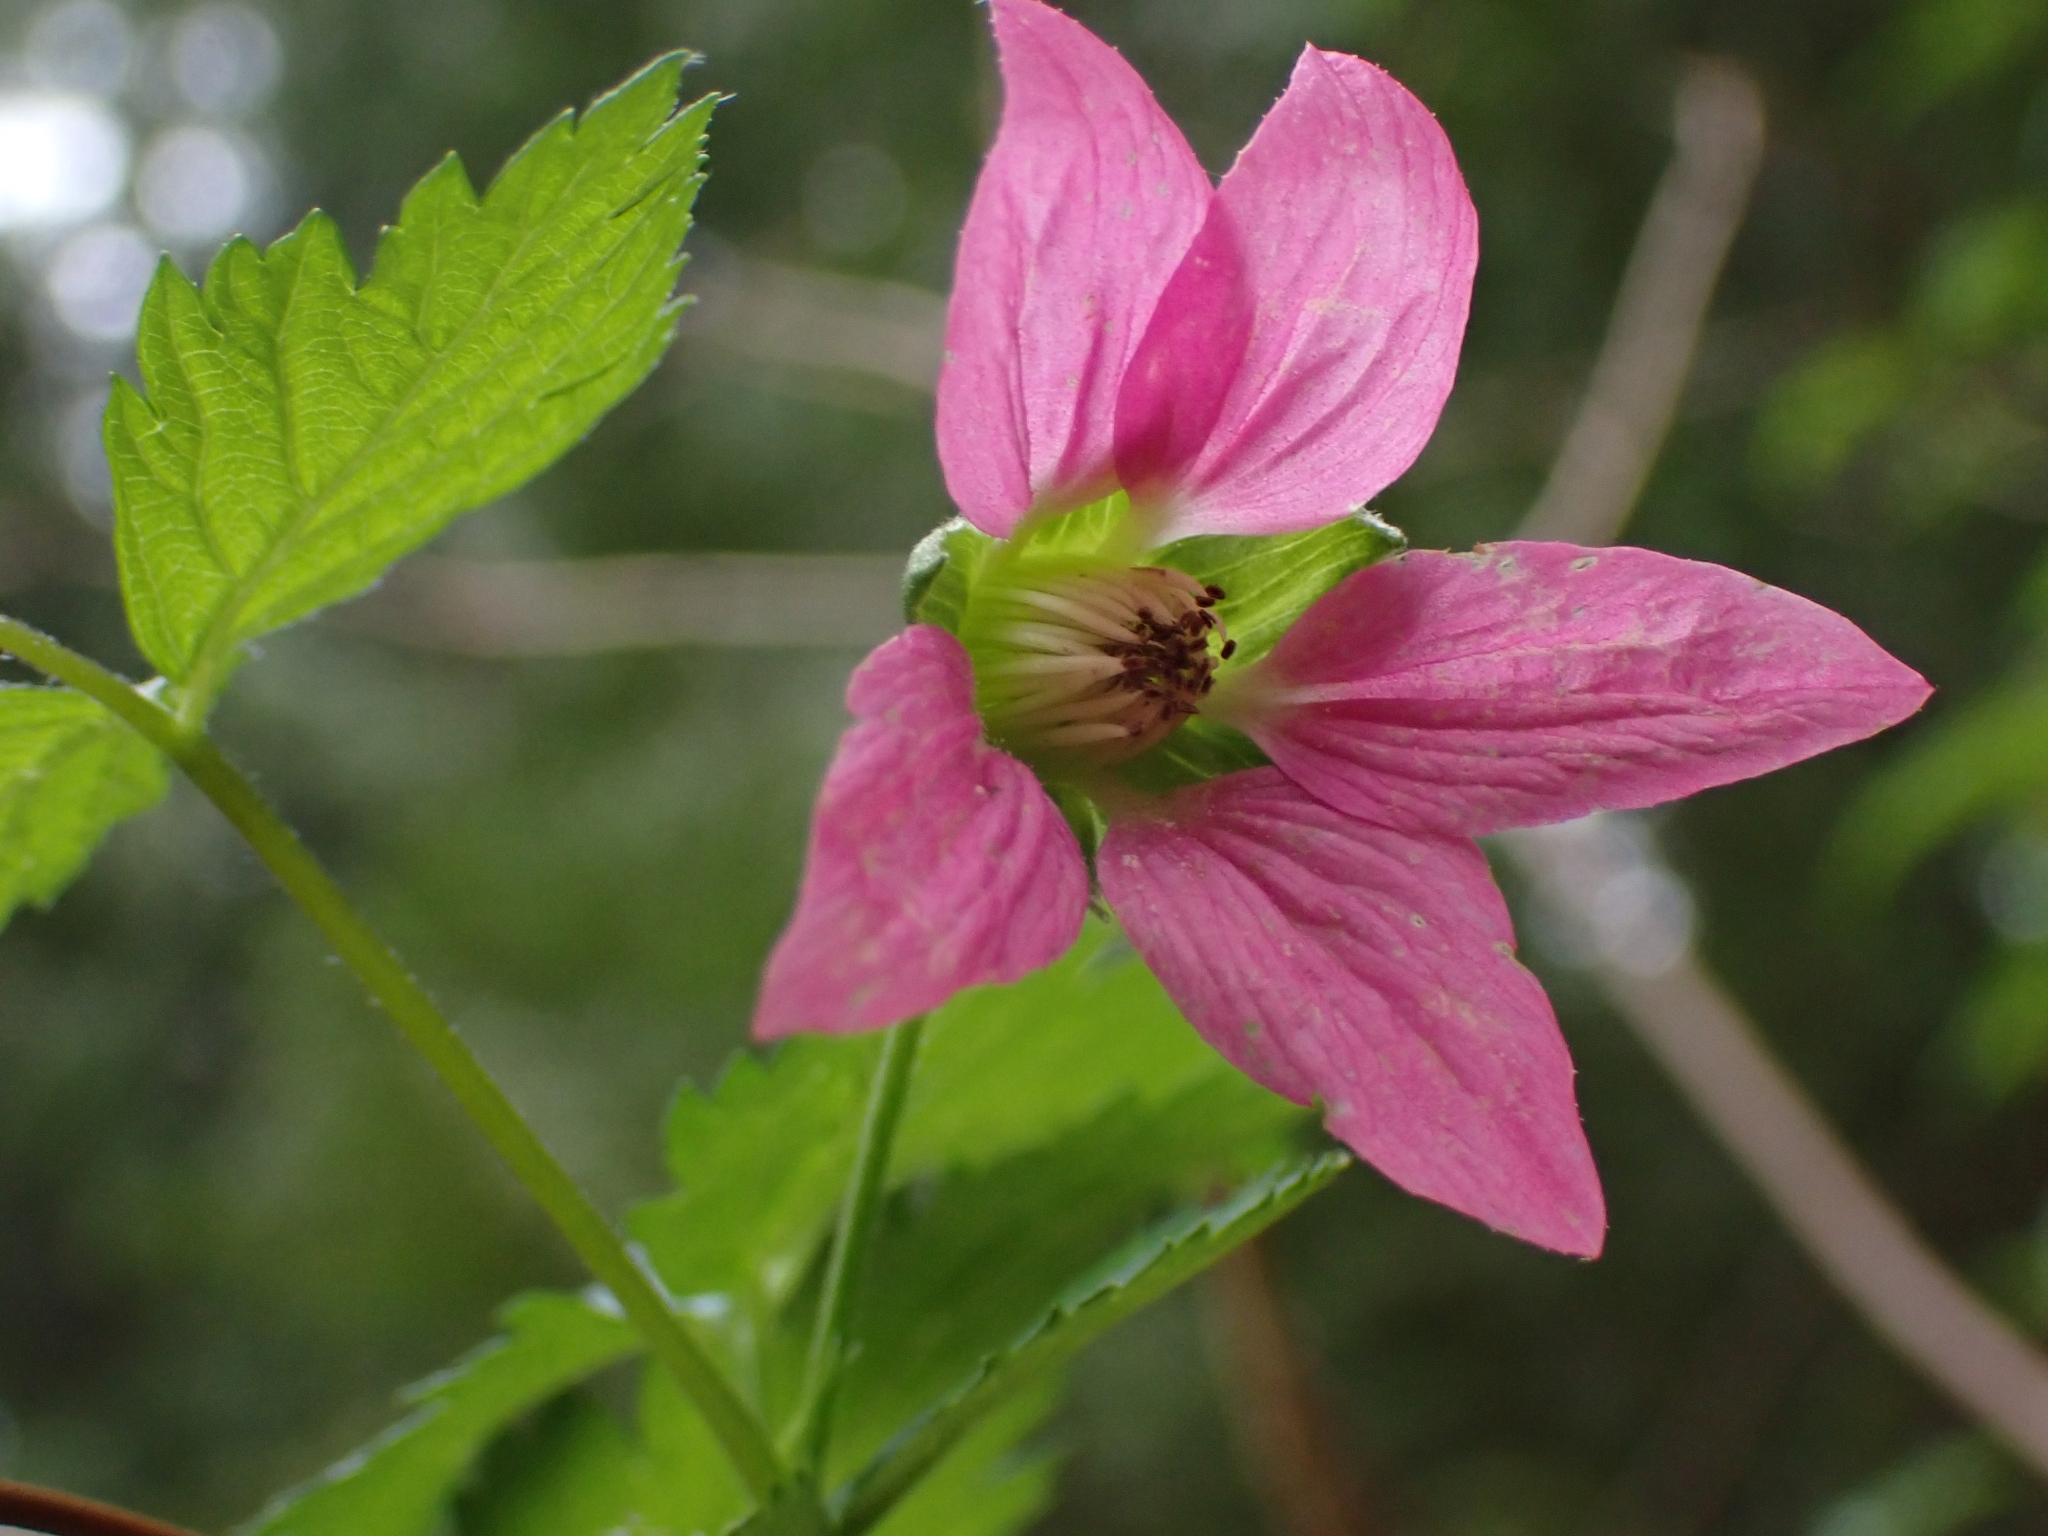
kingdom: Plantae
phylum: Tracheophyta
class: Magnoliopsida
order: Rosales
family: Rosaceae
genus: Rubus
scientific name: Rubus spectabilis
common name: Salmonberry
